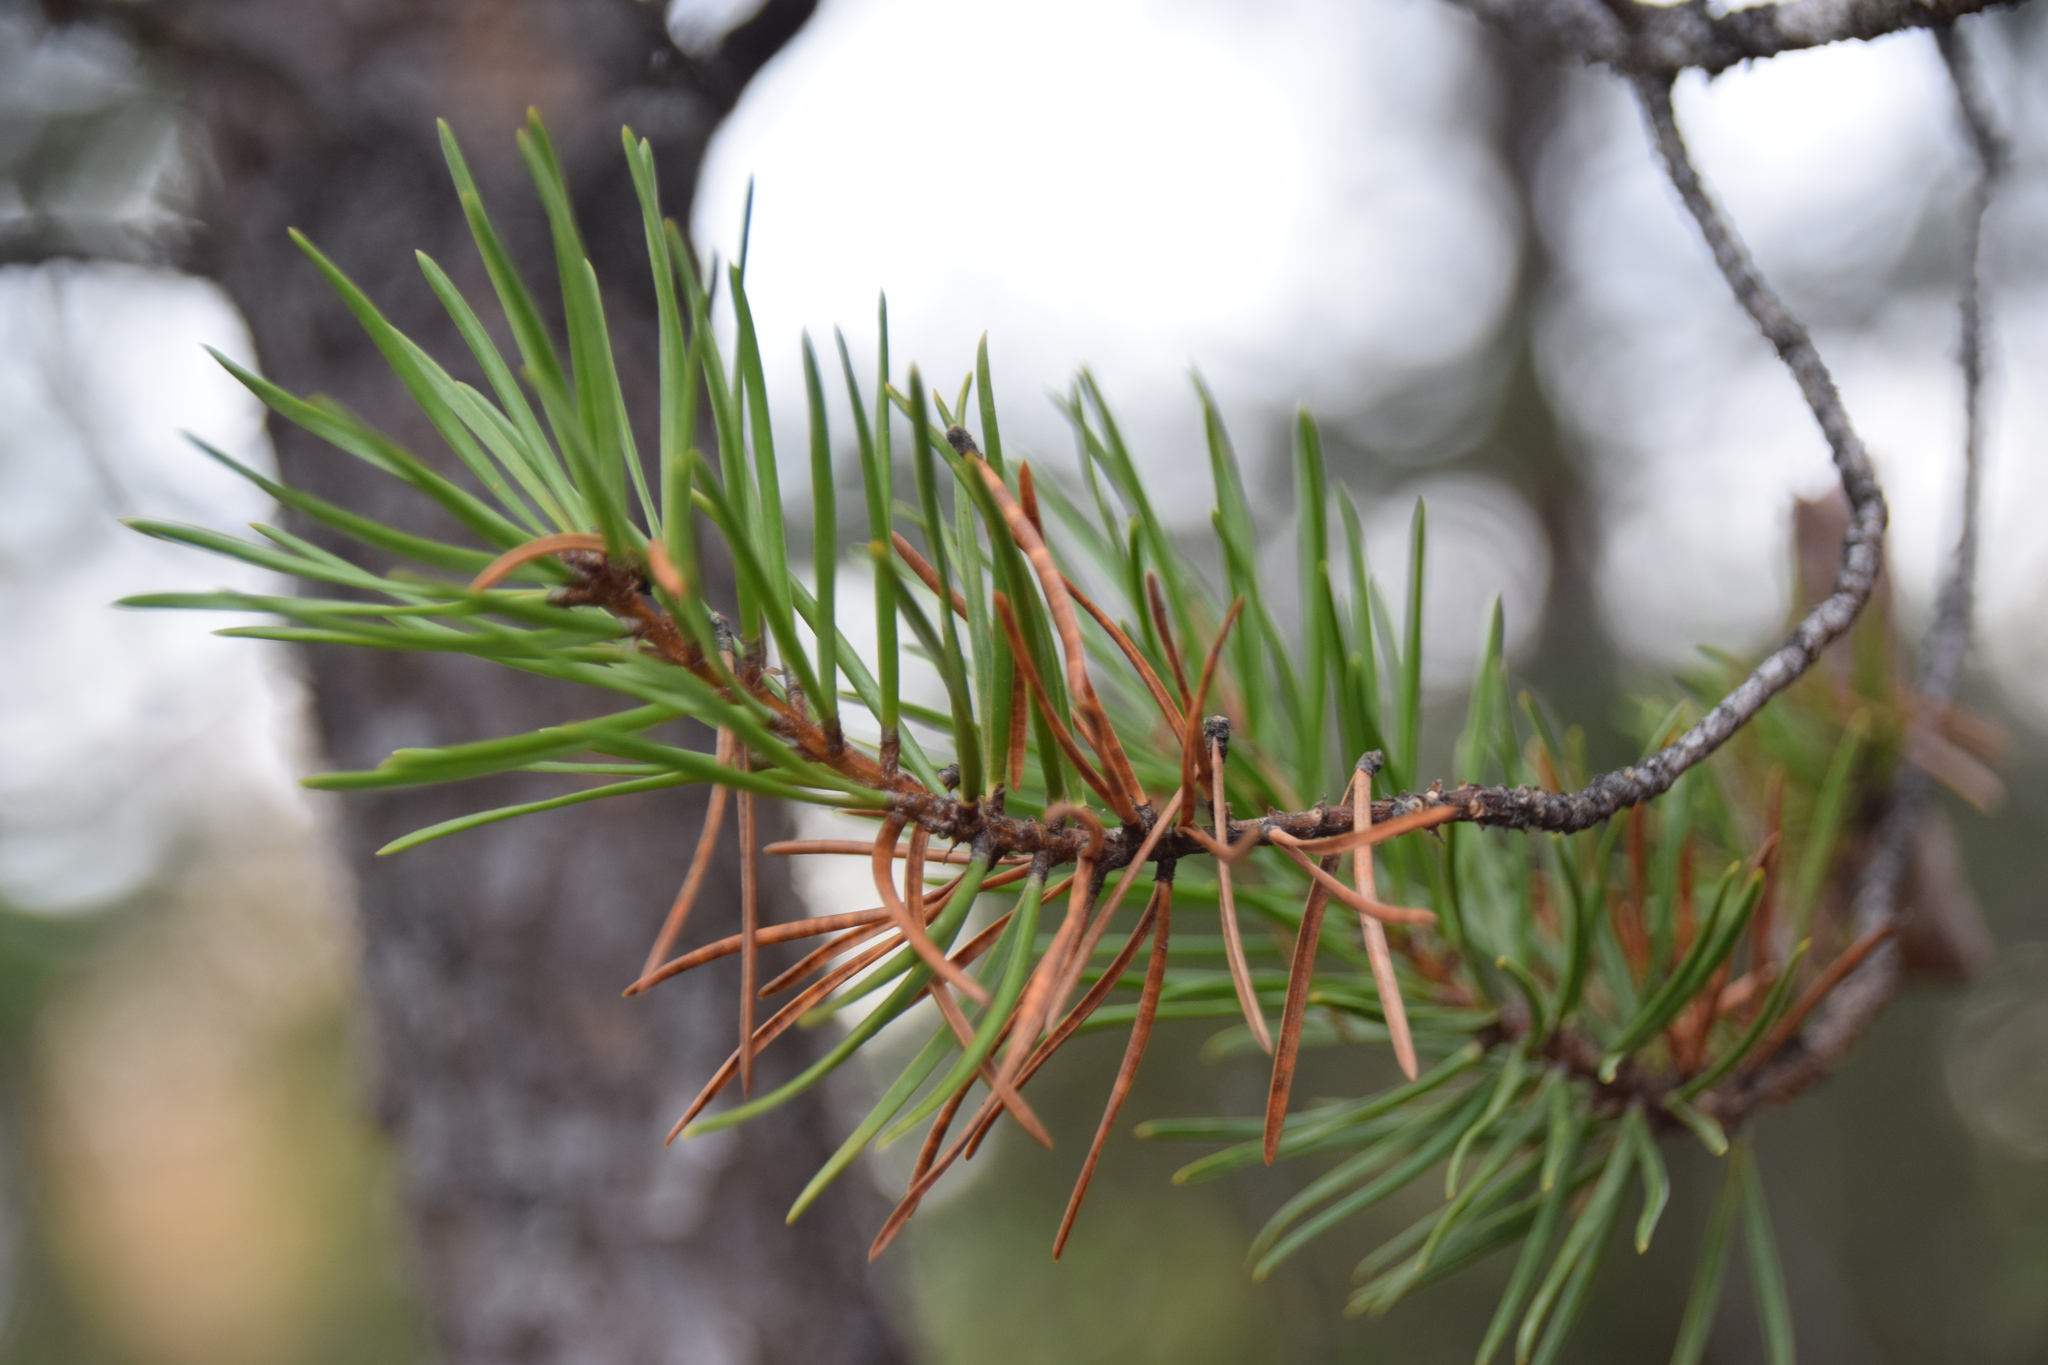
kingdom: Plantae
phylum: Tracheophyta
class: Pinopsida
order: Pinales
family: Pinaceae
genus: Pinus
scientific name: Pinus banksiana
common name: Jack pine
